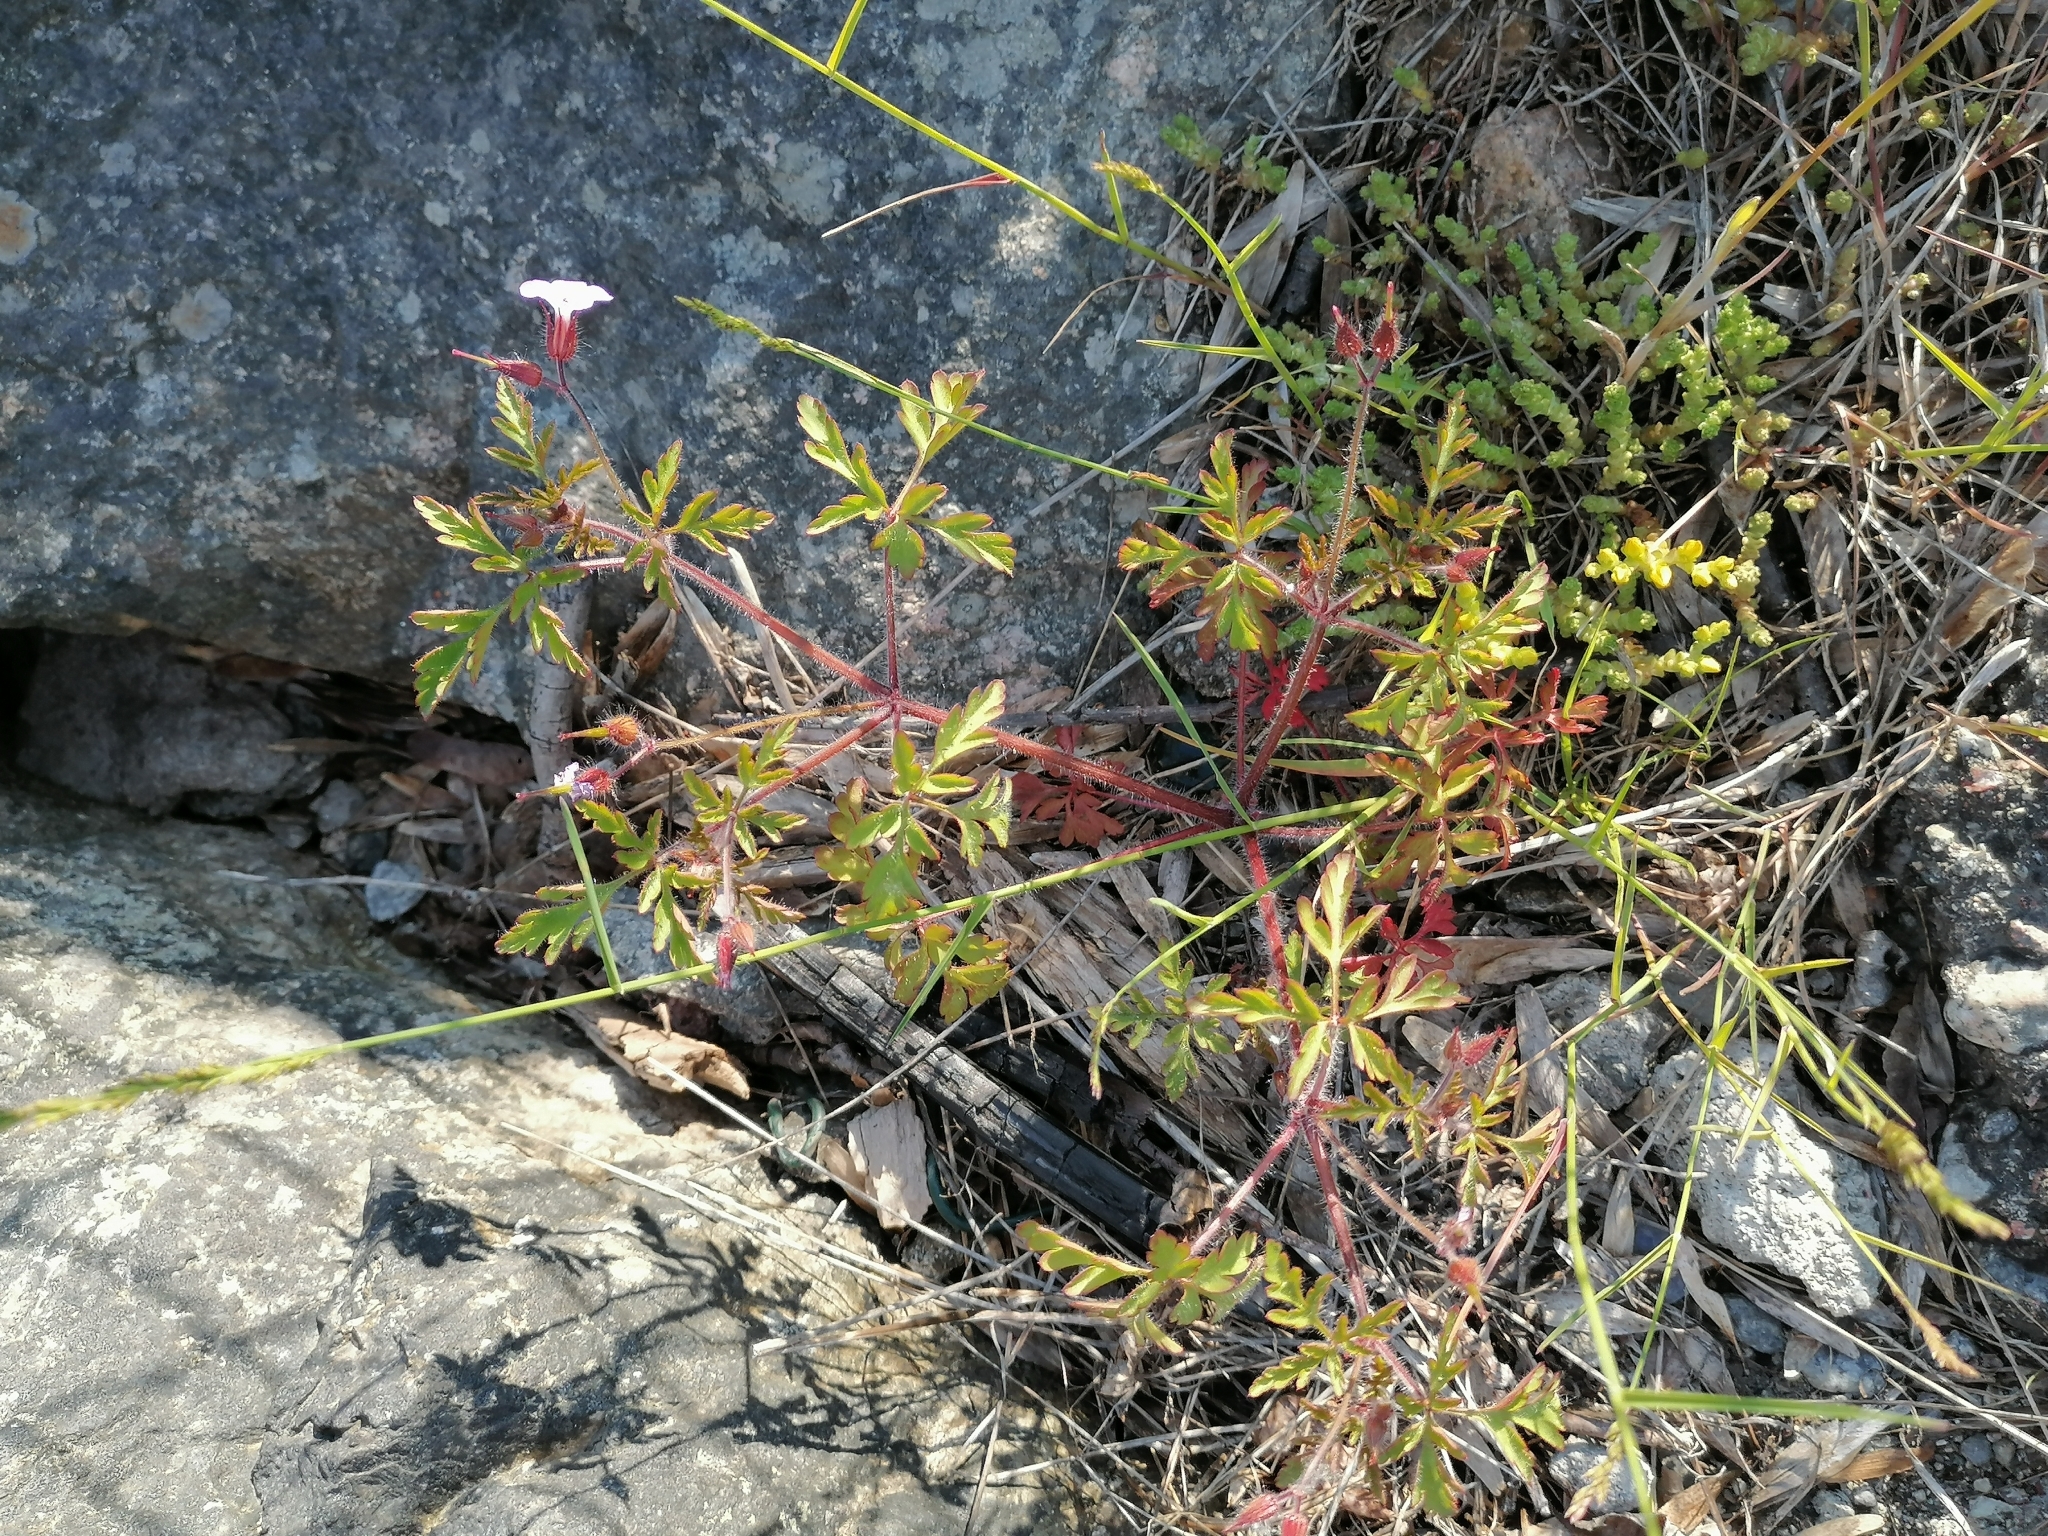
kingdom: Plantae
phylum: Tracheophyta
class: Magnoliopsida
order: Geraniales
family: Geraniaceae
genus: Geranium
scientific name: Geranium robertianum
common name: Herb-robert
